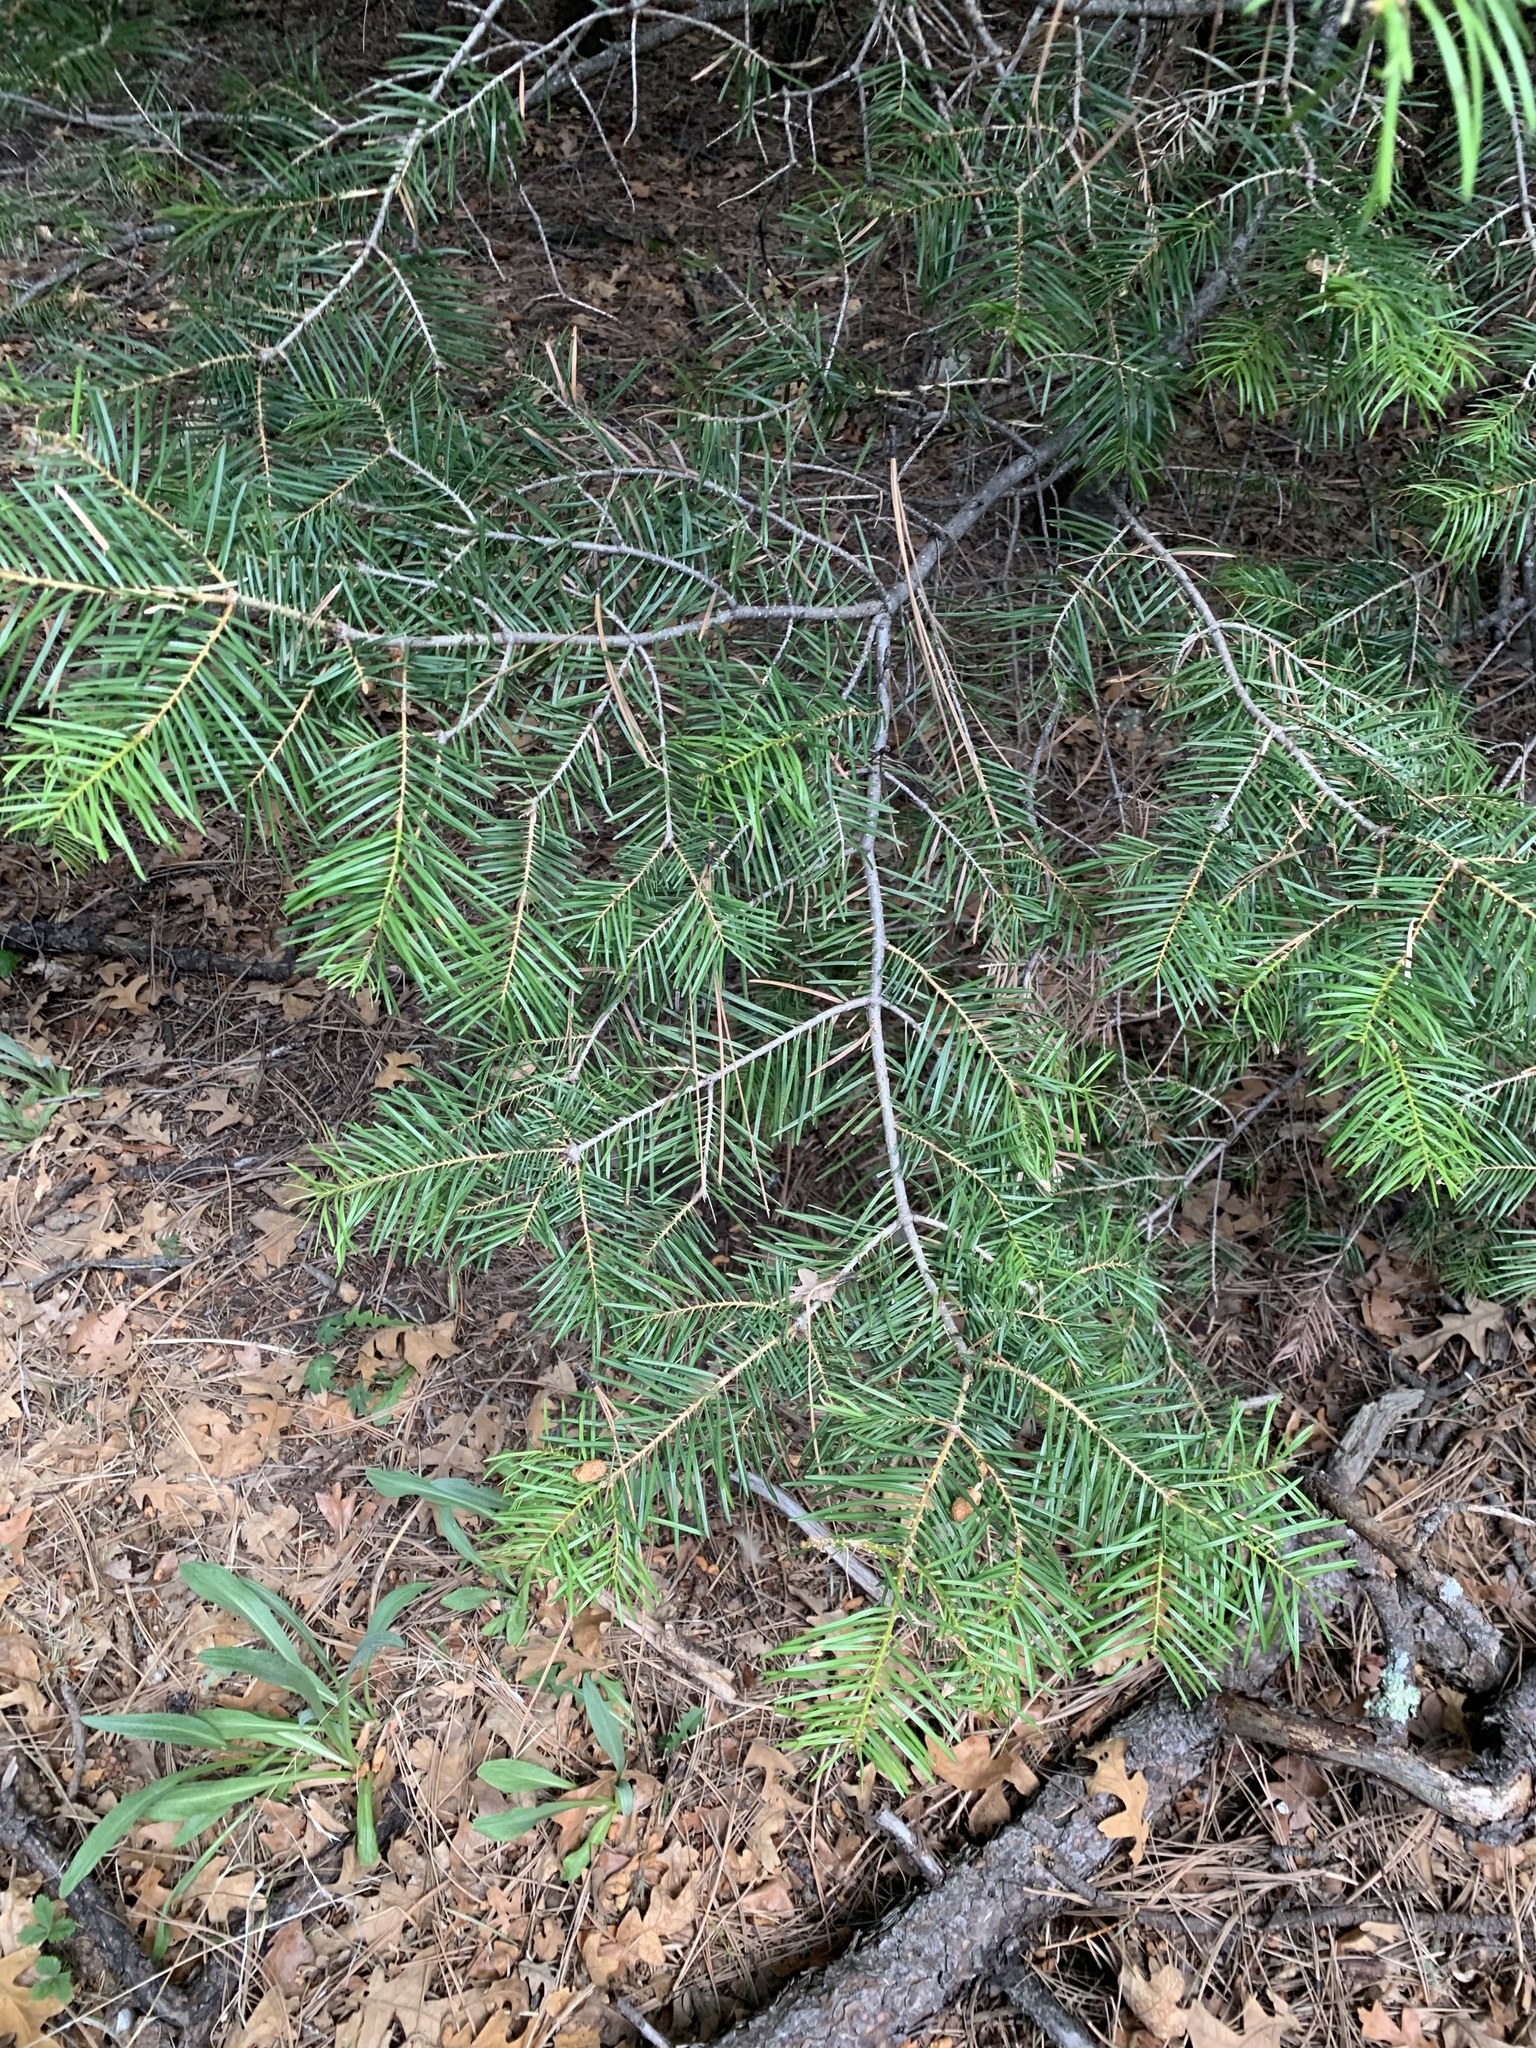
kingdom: Plantae
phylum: Tracheophyta
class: Pinopsida
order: Pinales
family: Pinaceae
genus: Abies
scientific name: Abies concolor
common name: Colorado fir
